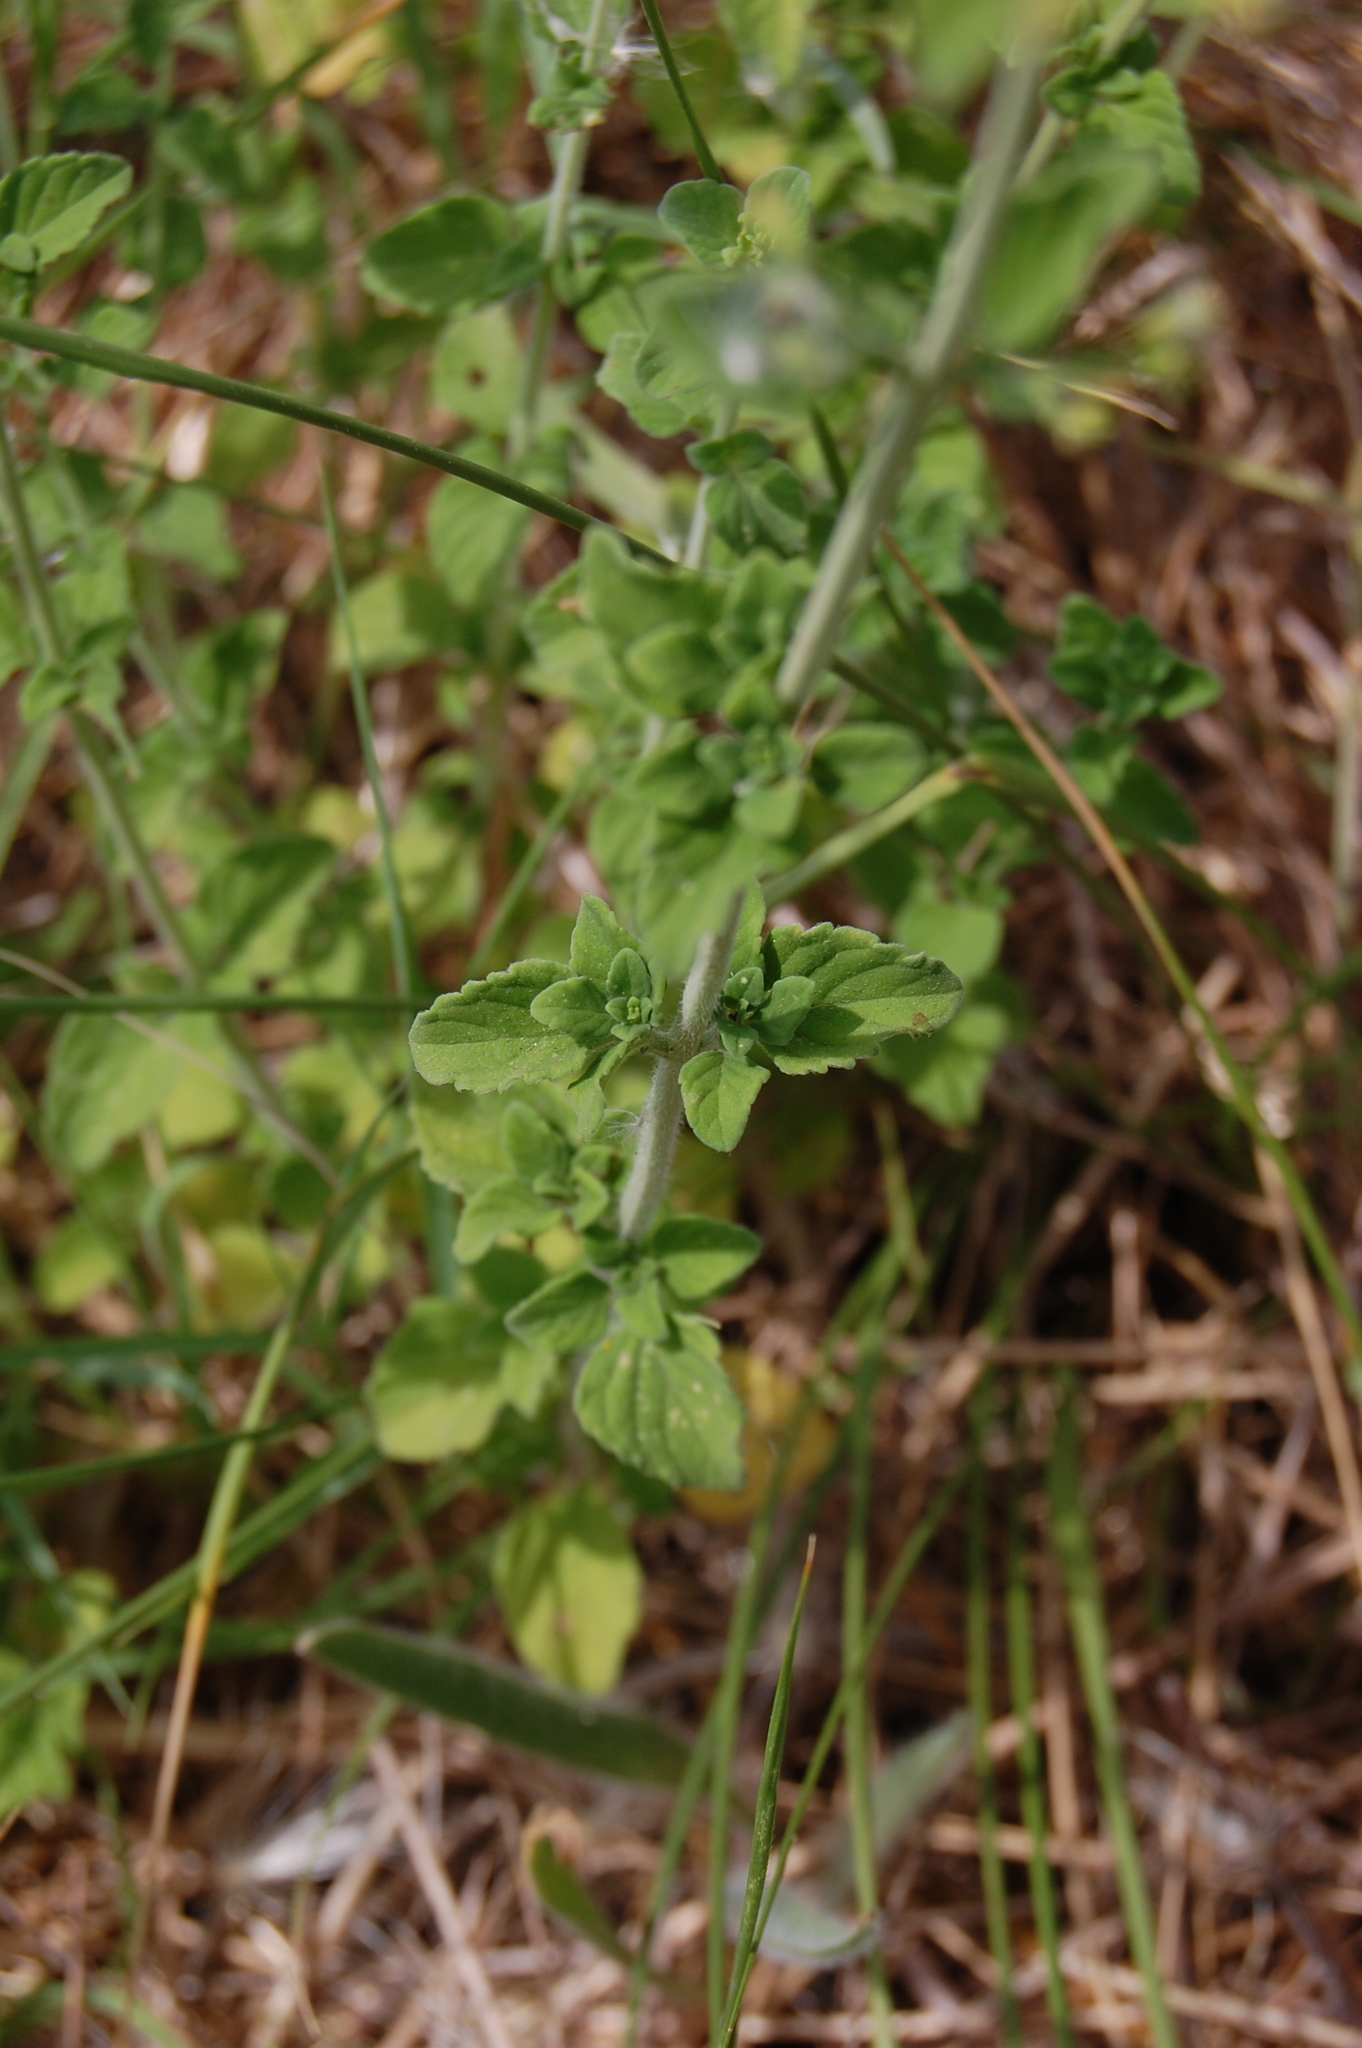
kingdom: Plantae
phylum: Tracheophyta
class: Magnoliopsida
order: Lamiales
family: Lamiaceae
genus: Clinopodium
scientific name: Clinopodium nepeta
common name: Lesser calamint
